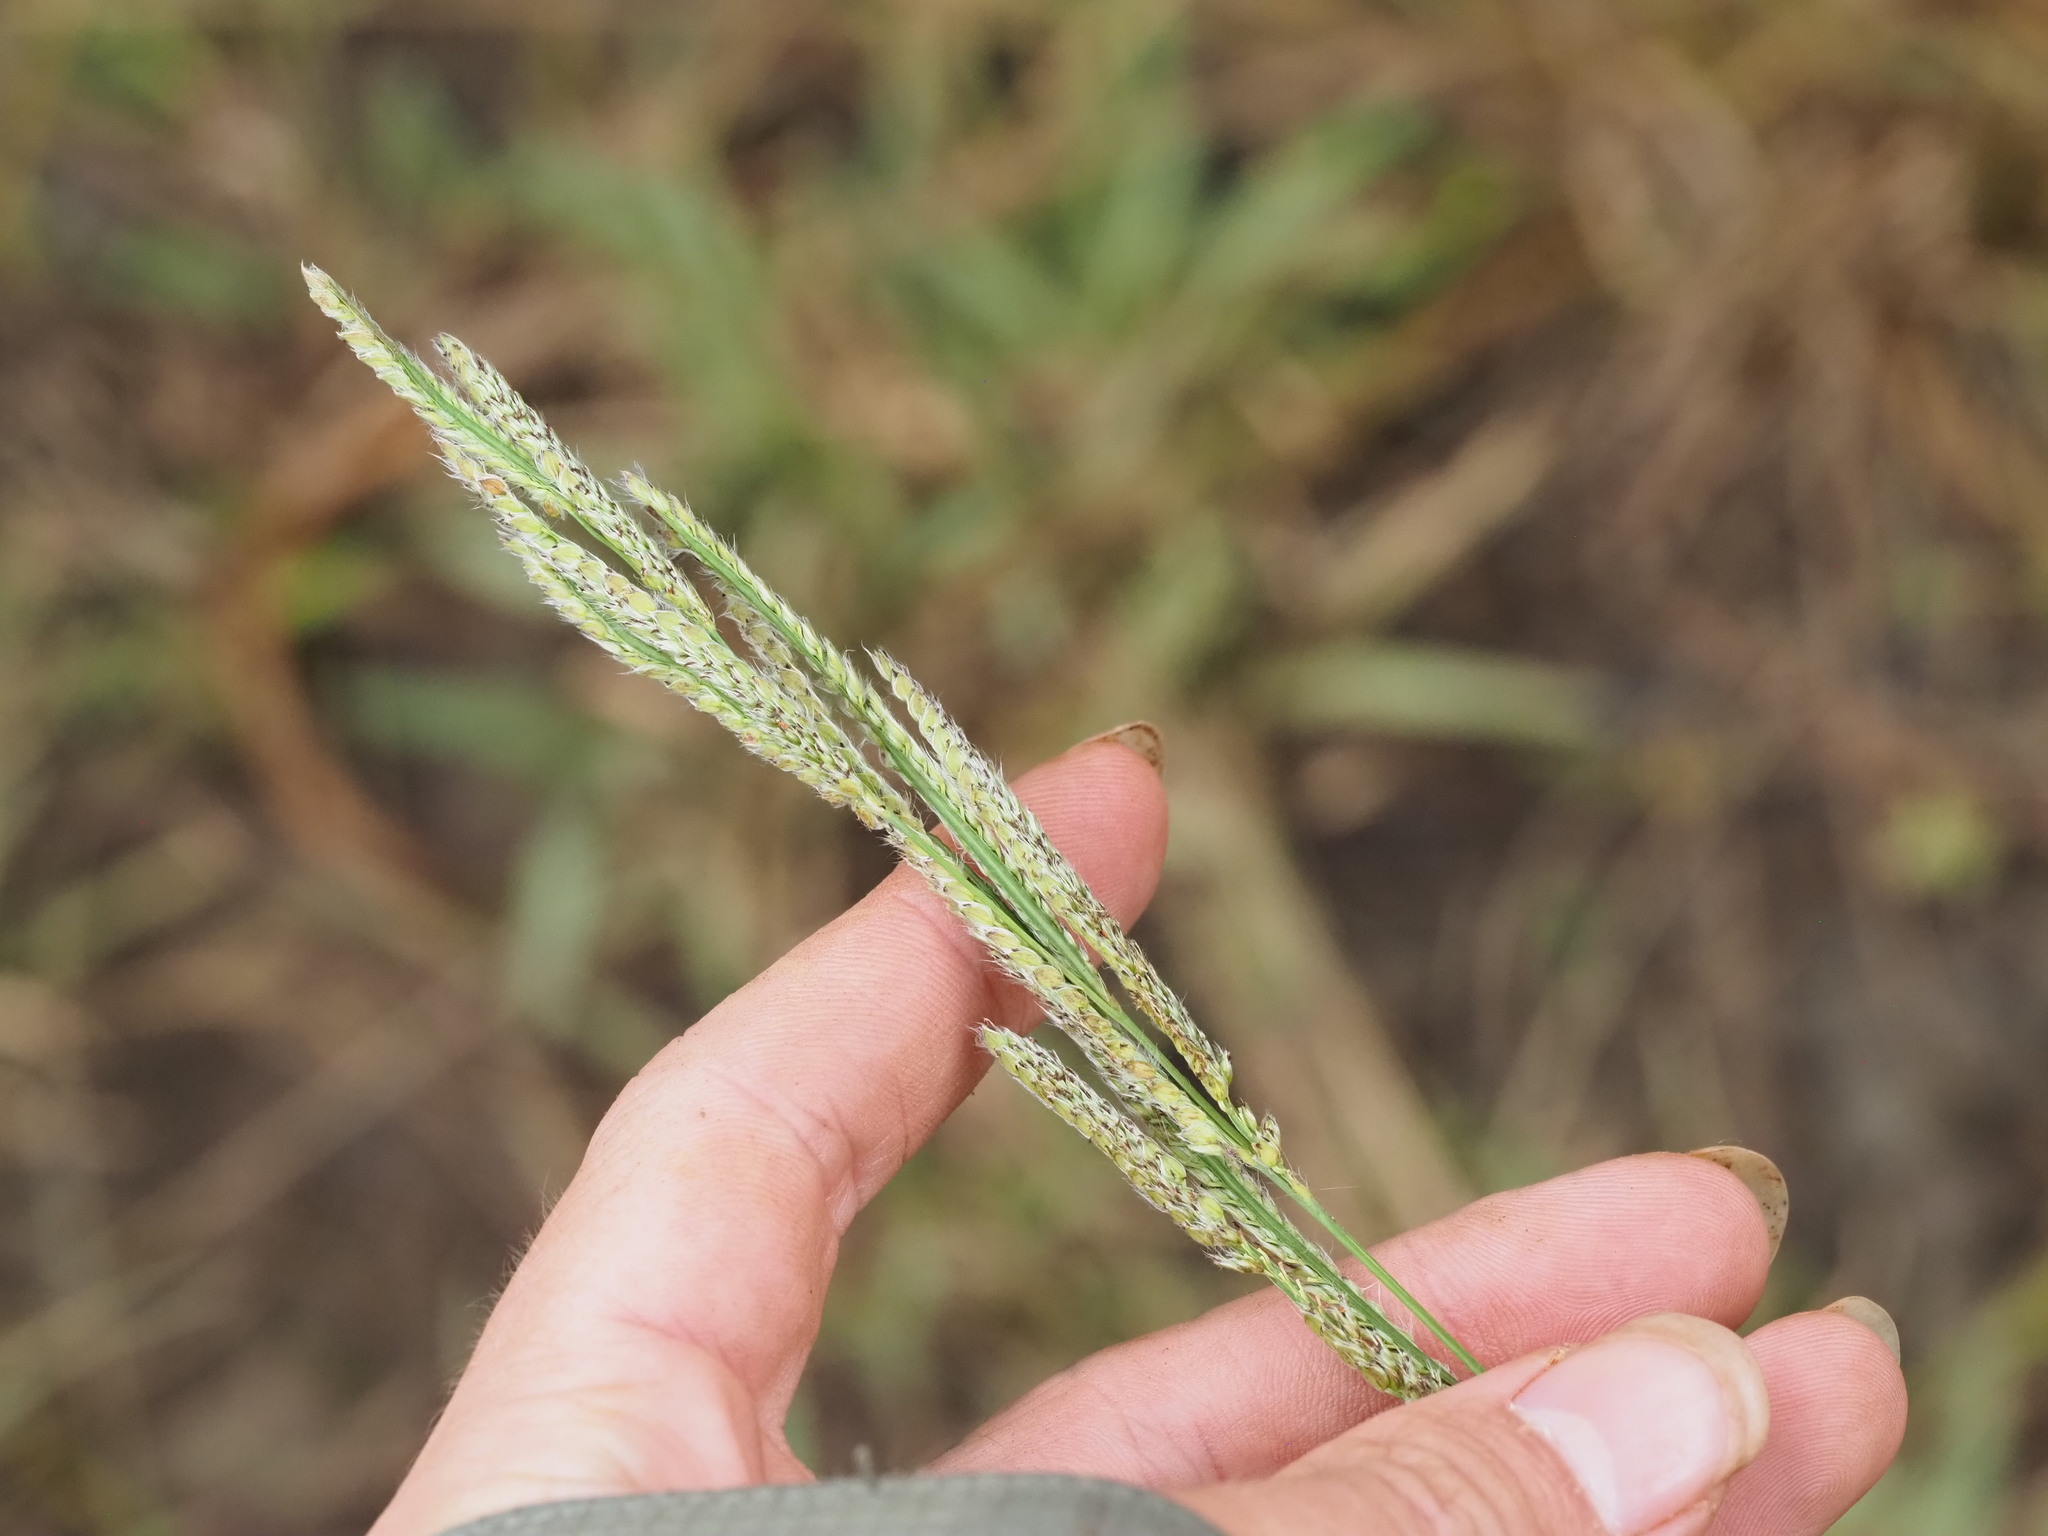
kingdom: Plantae
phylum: Tracheophyta
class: Liliopsida
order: Poales
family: Poaceae
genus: Paspalum
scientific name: Paspalum urvillei
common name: Vasey's grass
